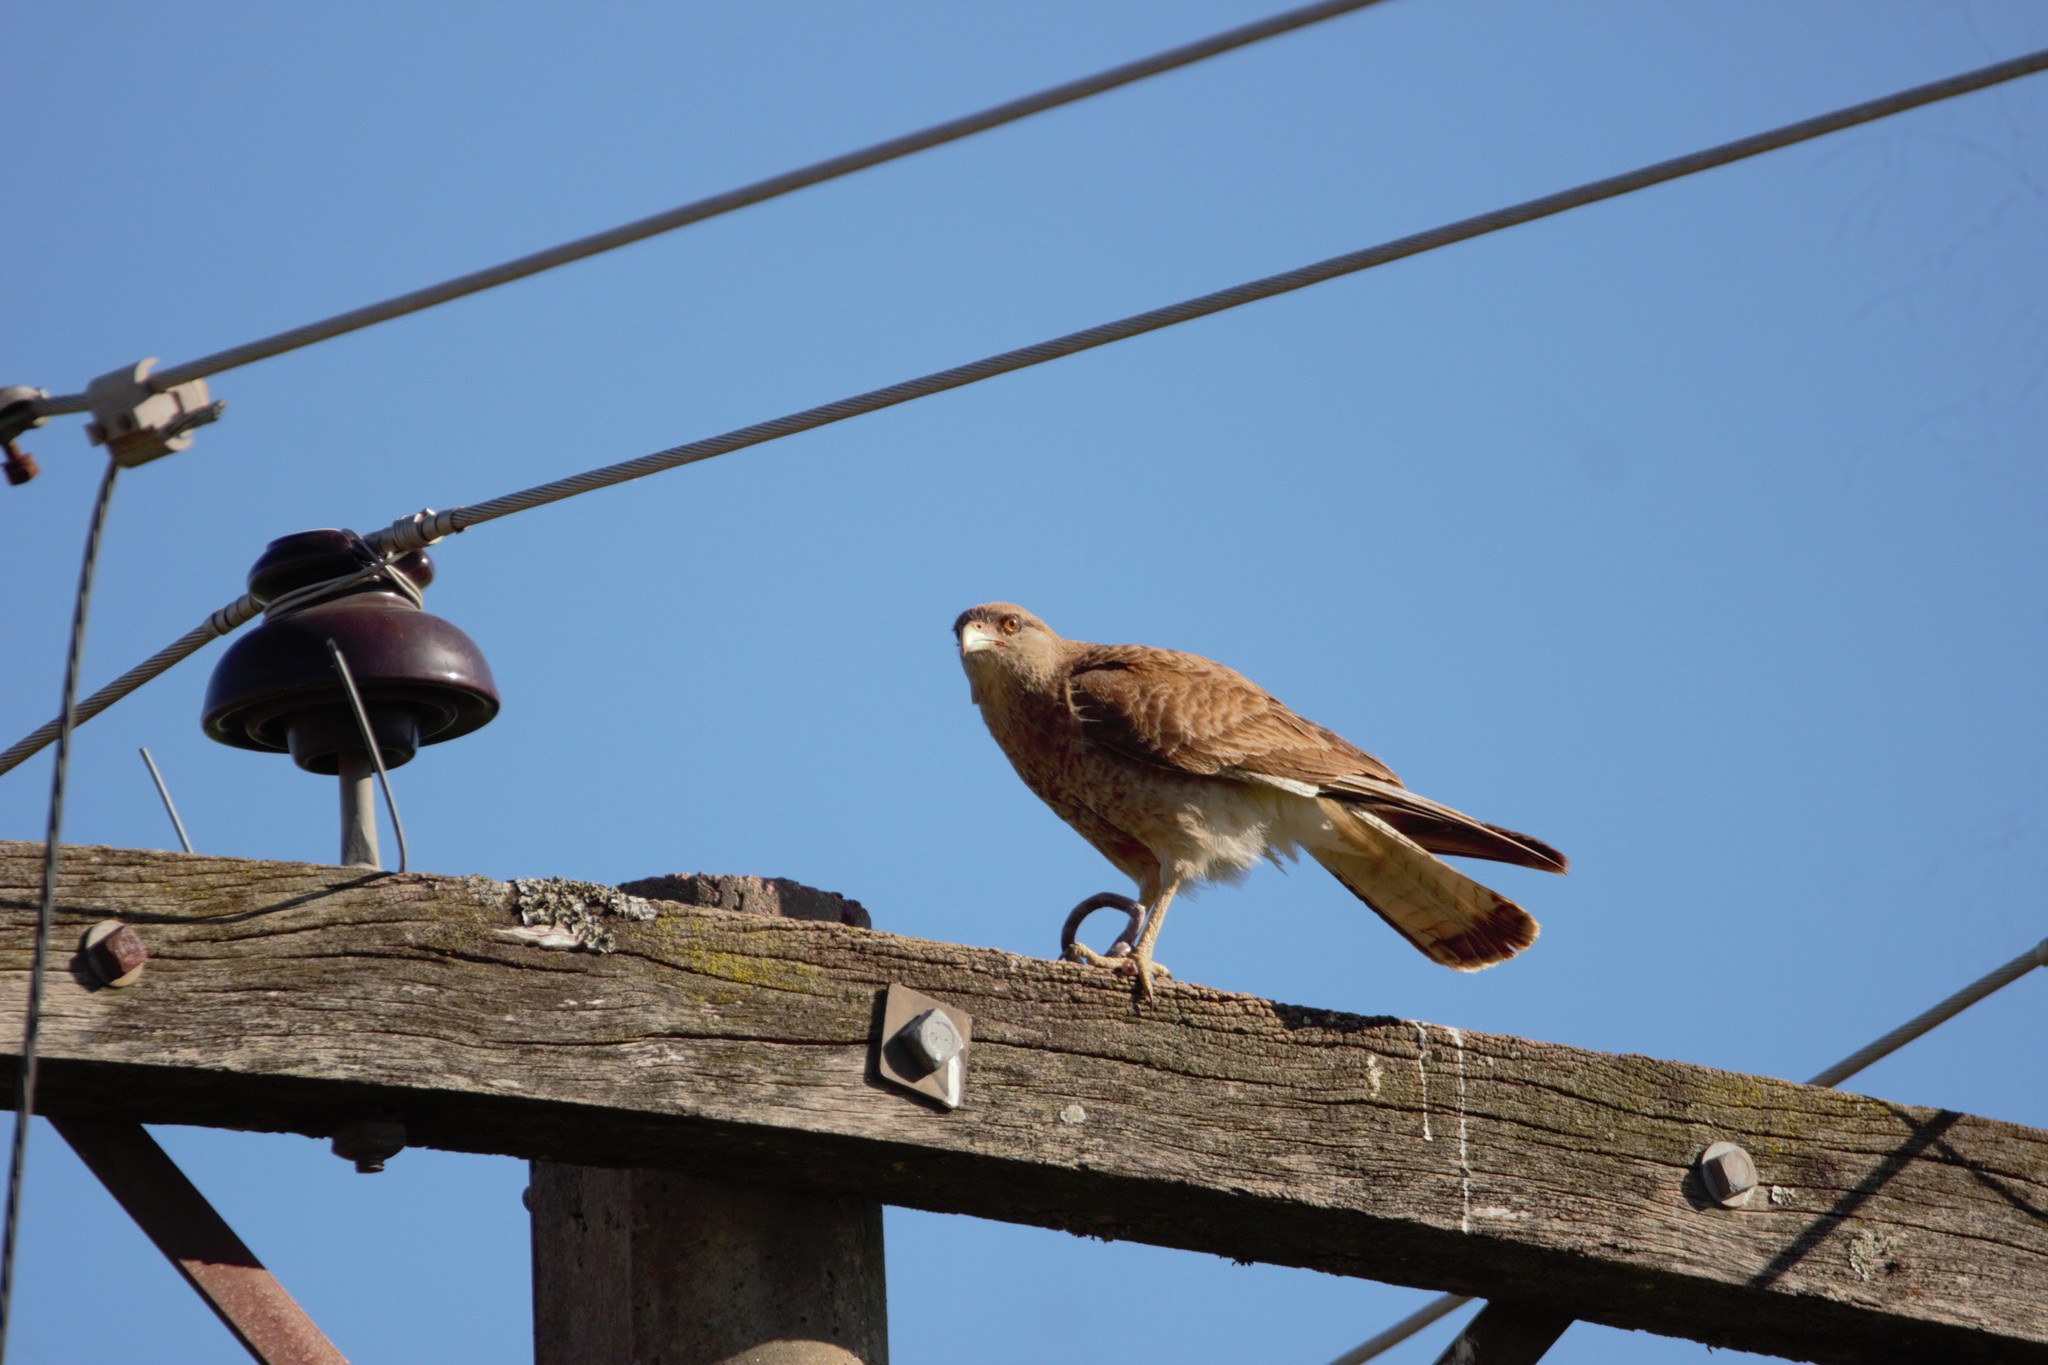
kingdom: Animalia
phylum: Chordata
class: Aves
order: Falconiformes
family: Falconidae
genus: Daptrius
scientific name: Daptrius
